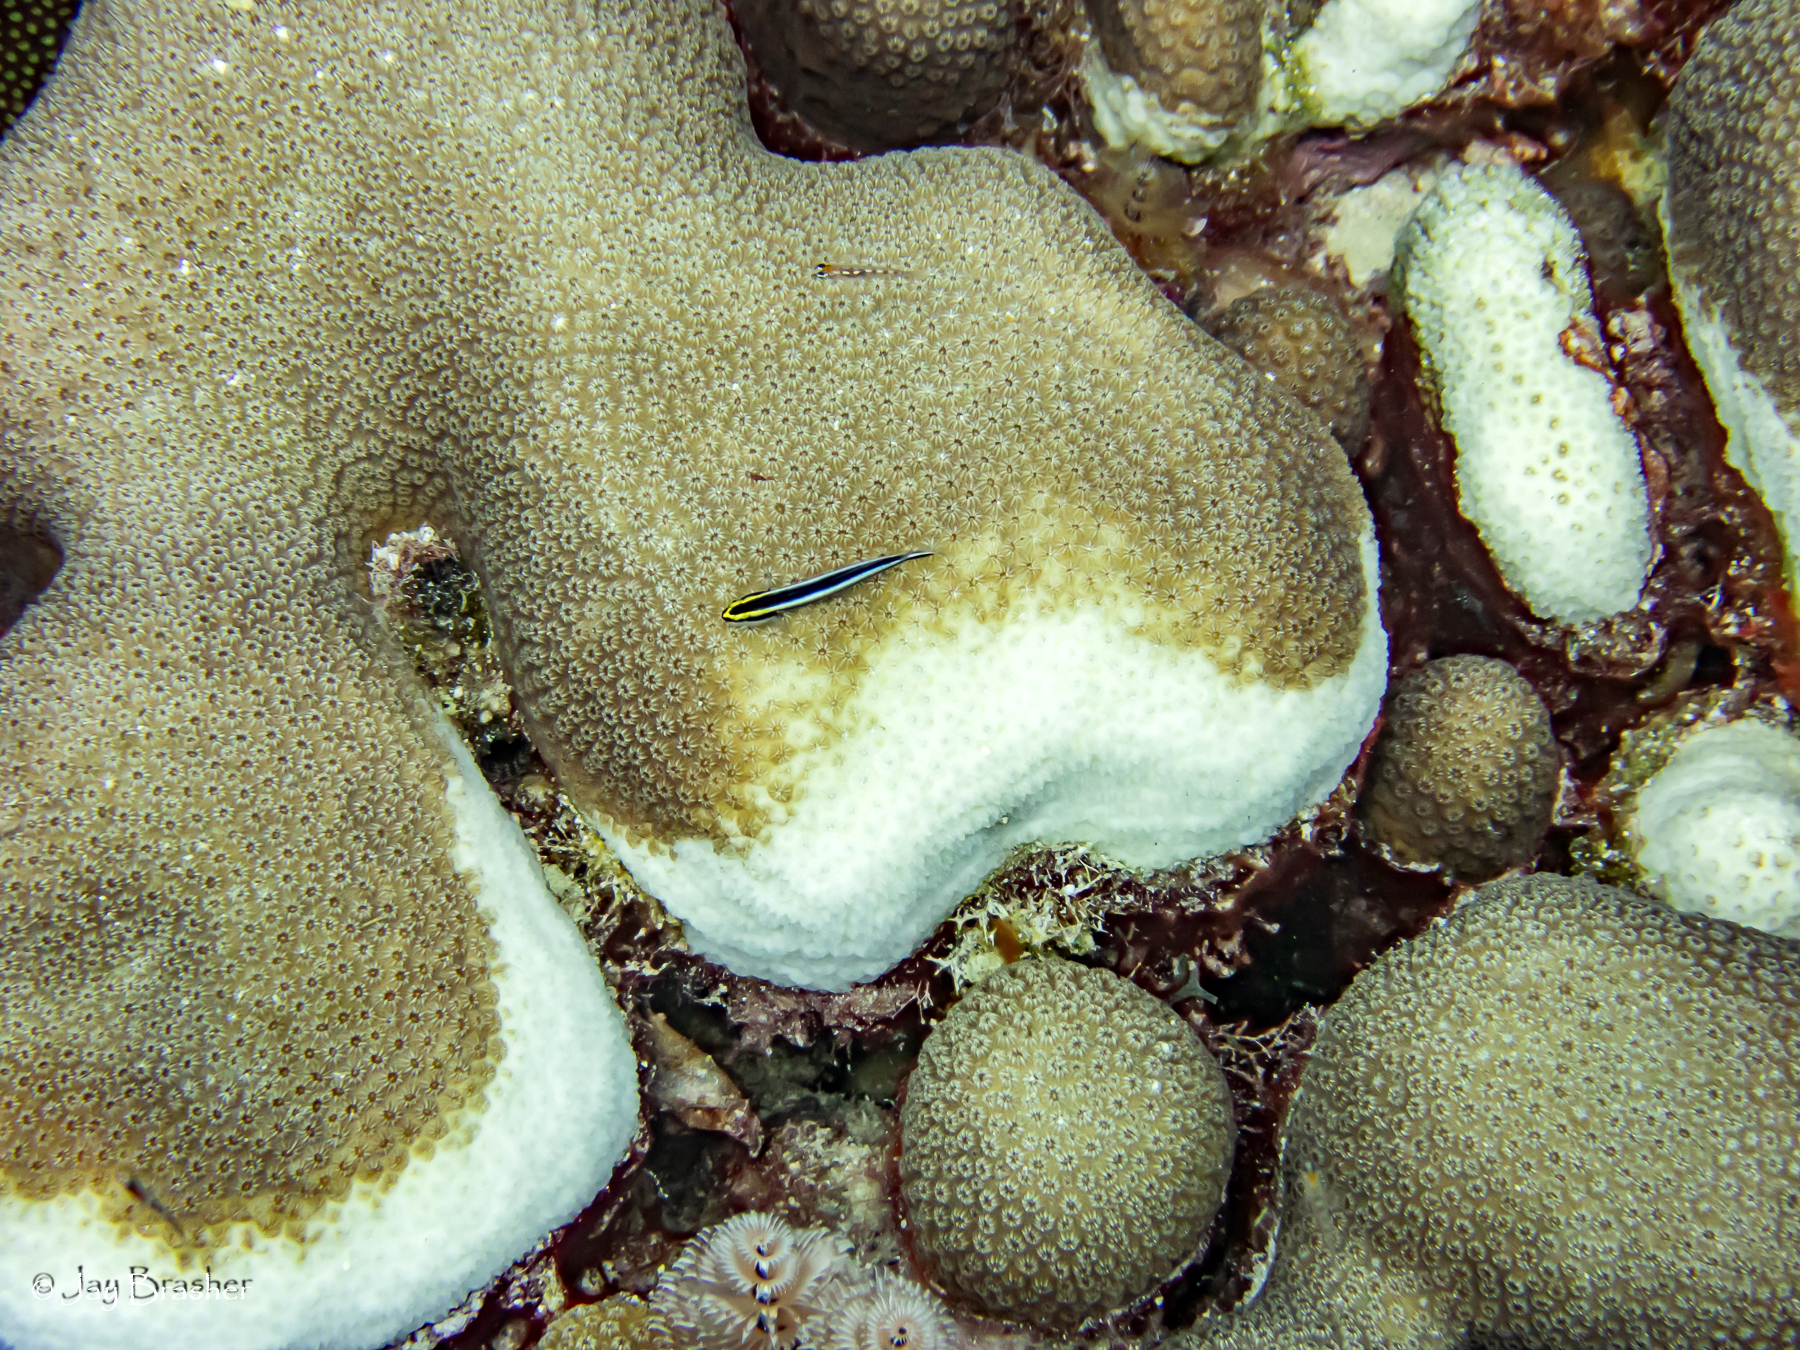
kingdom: Animalia
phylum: Cnidaria
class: Anthozoa
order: Scleractinia
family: Merulinidae
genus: Orbicella
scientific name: Orbicella annularis
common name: Boulder star coral
